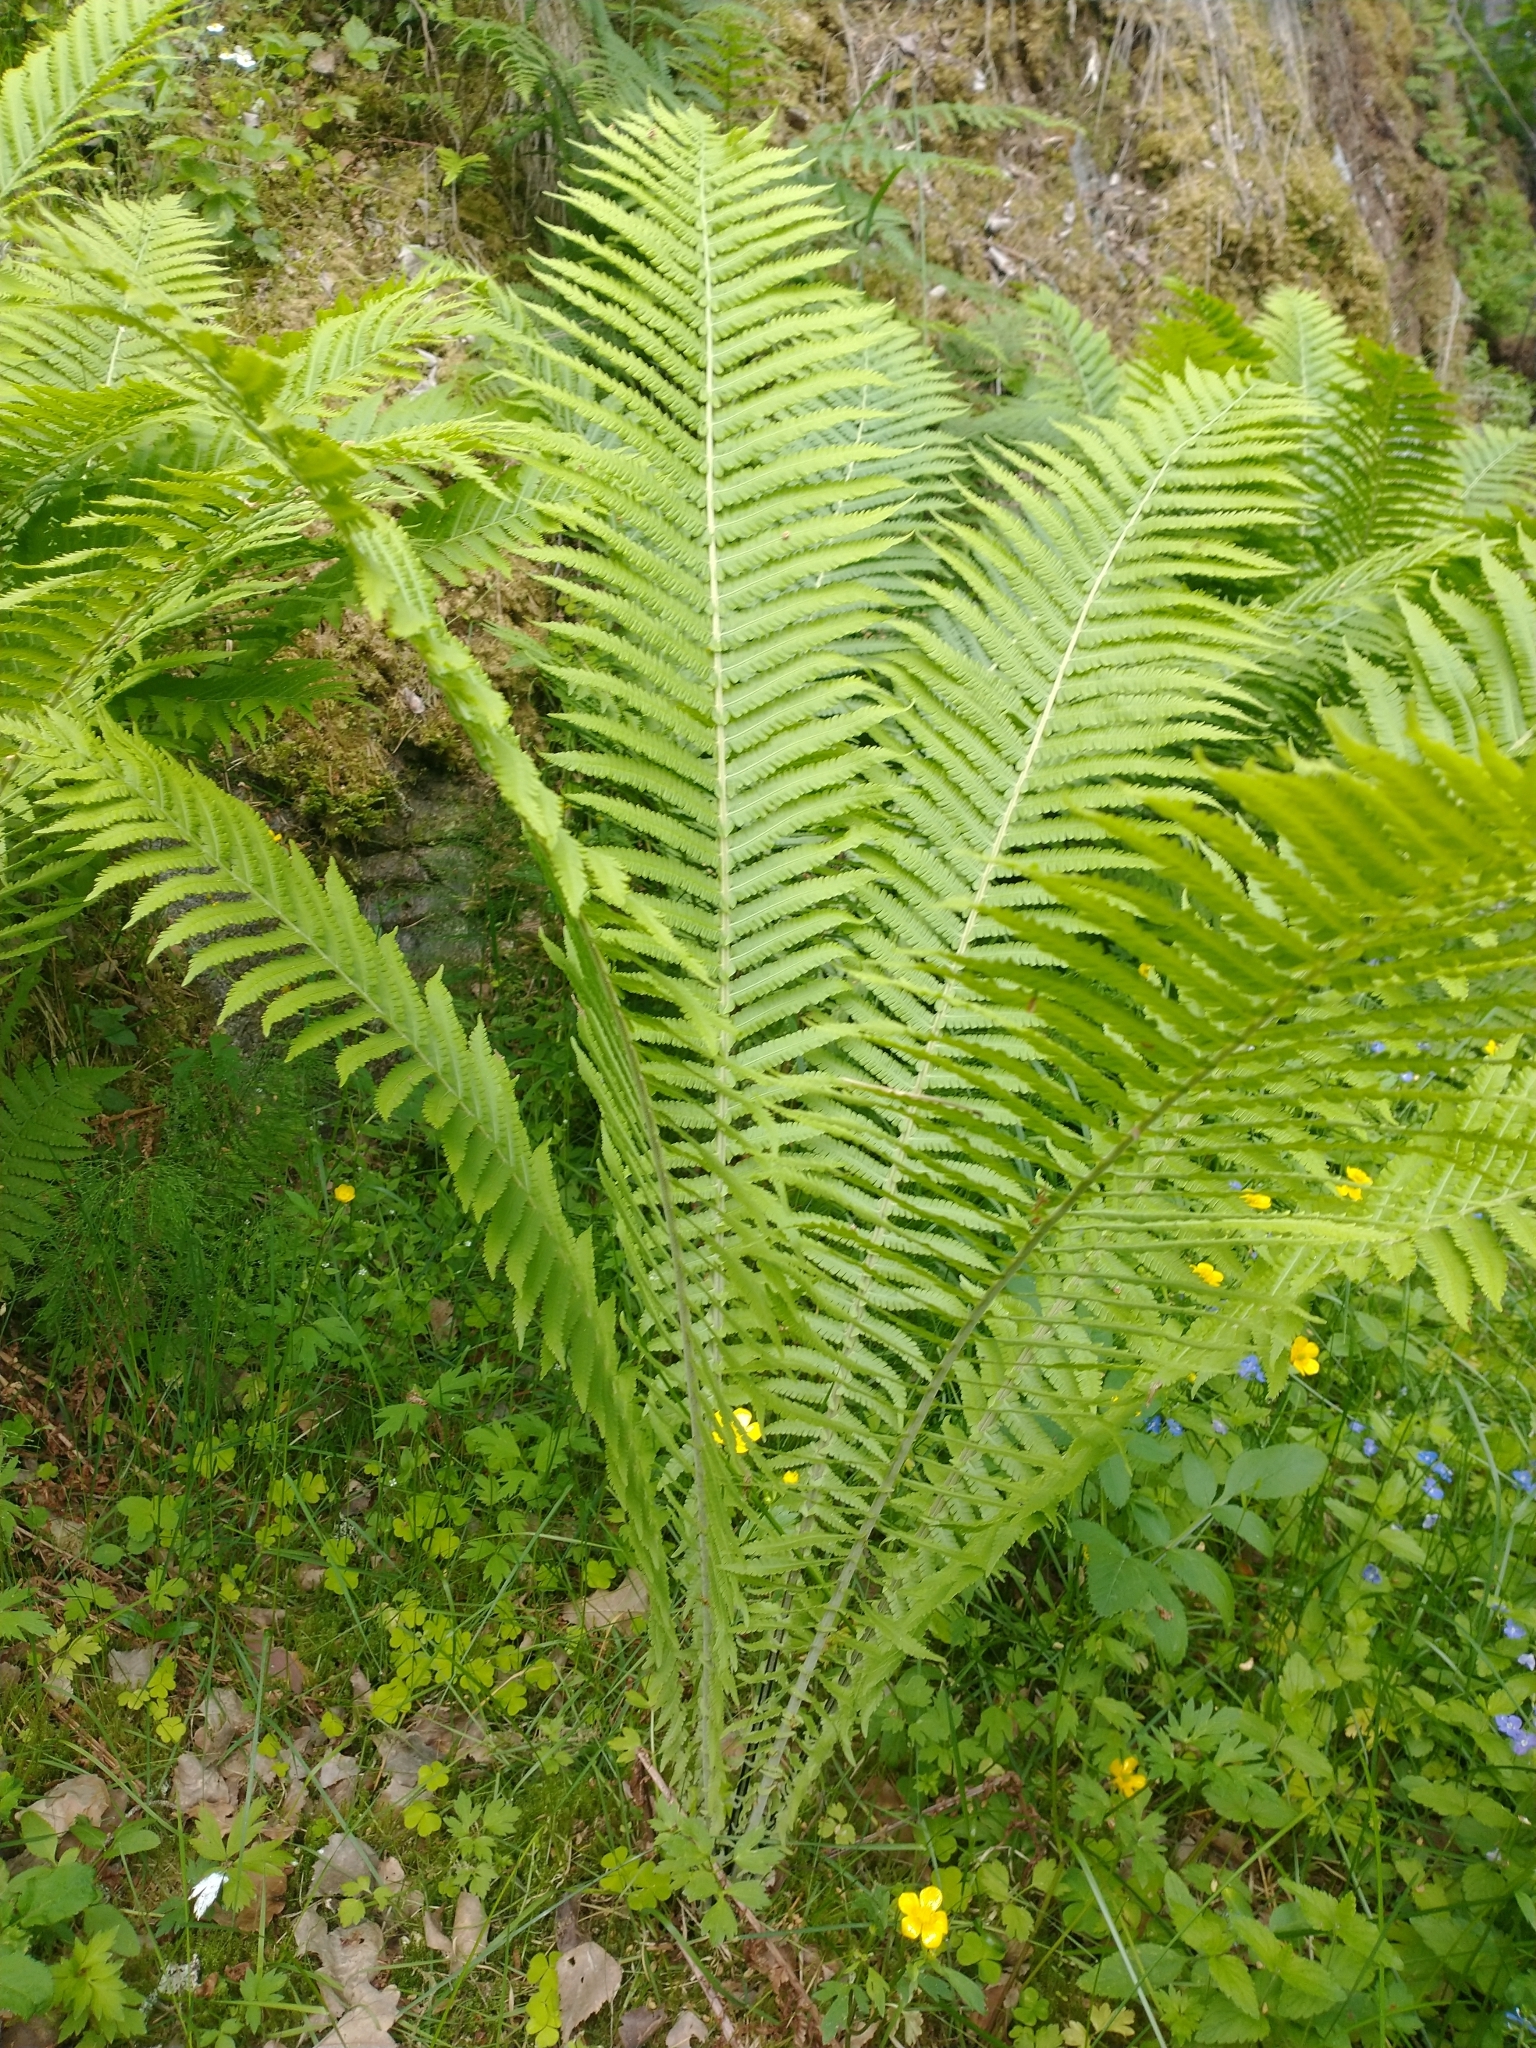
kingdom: Plantae
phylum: Tracheophyta
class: Polypodiopsida
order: Polypodiales
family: Onocleaceae
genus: Matteuccia
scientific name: Matteuccia struthiopteris
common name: Ostrich fern
